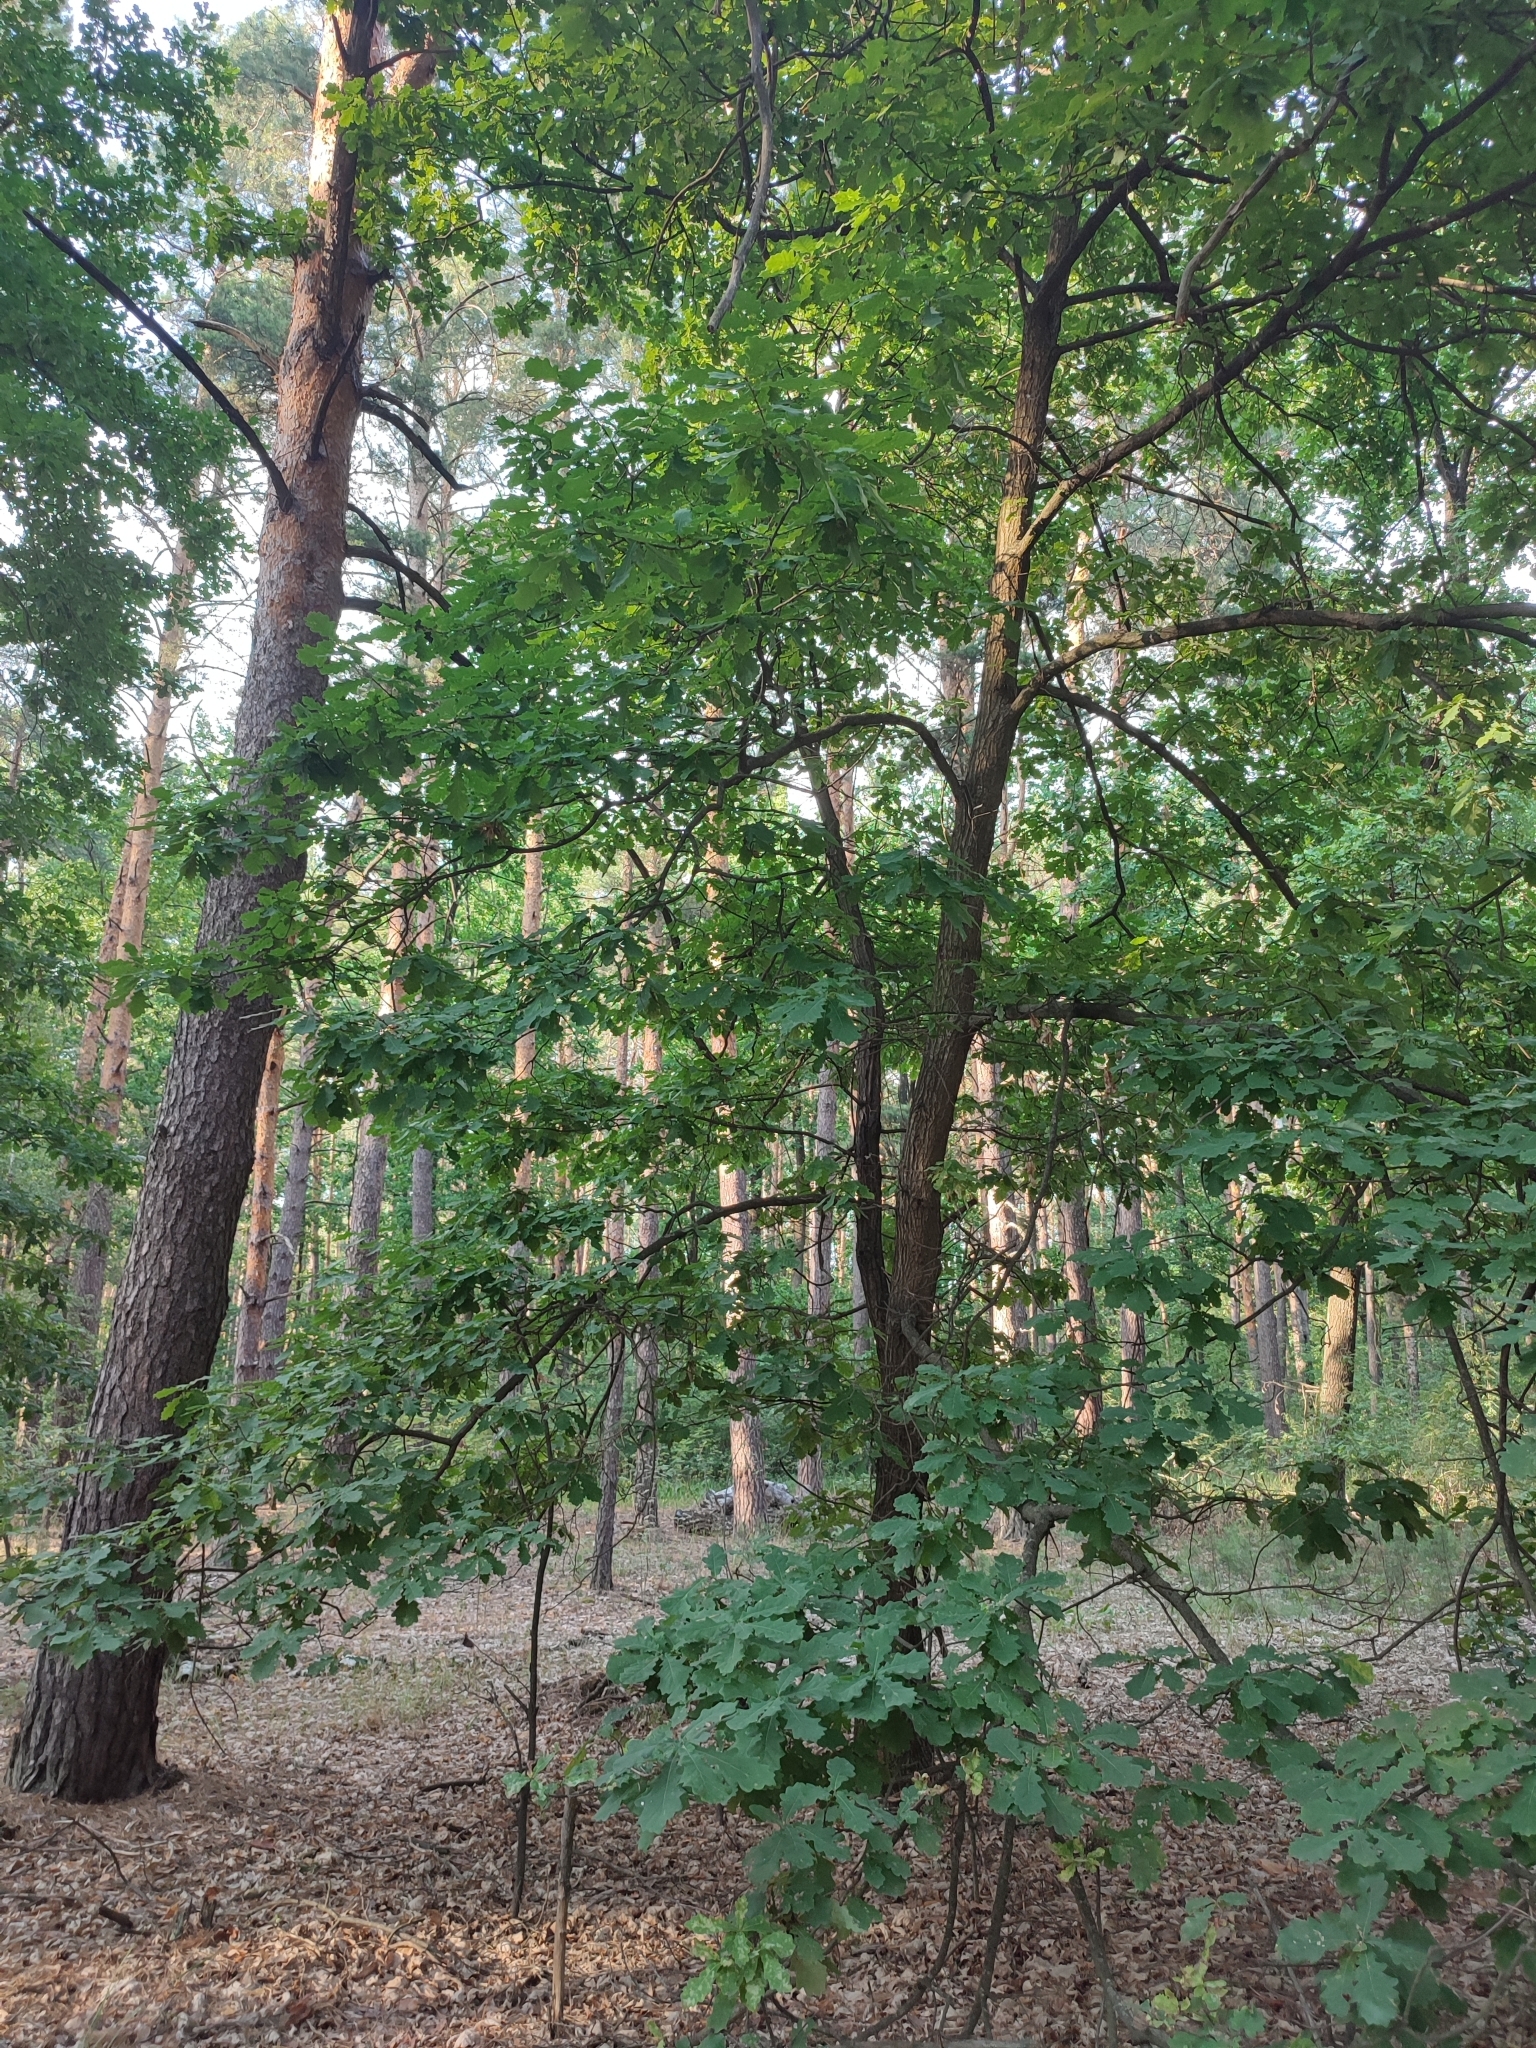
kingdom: Plantae
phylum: Tracheophyta
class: Magnoliopsida
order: Fagales
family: Fagaceae
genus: Quercus
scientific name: Quercus robur
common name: Pedunculate oak
